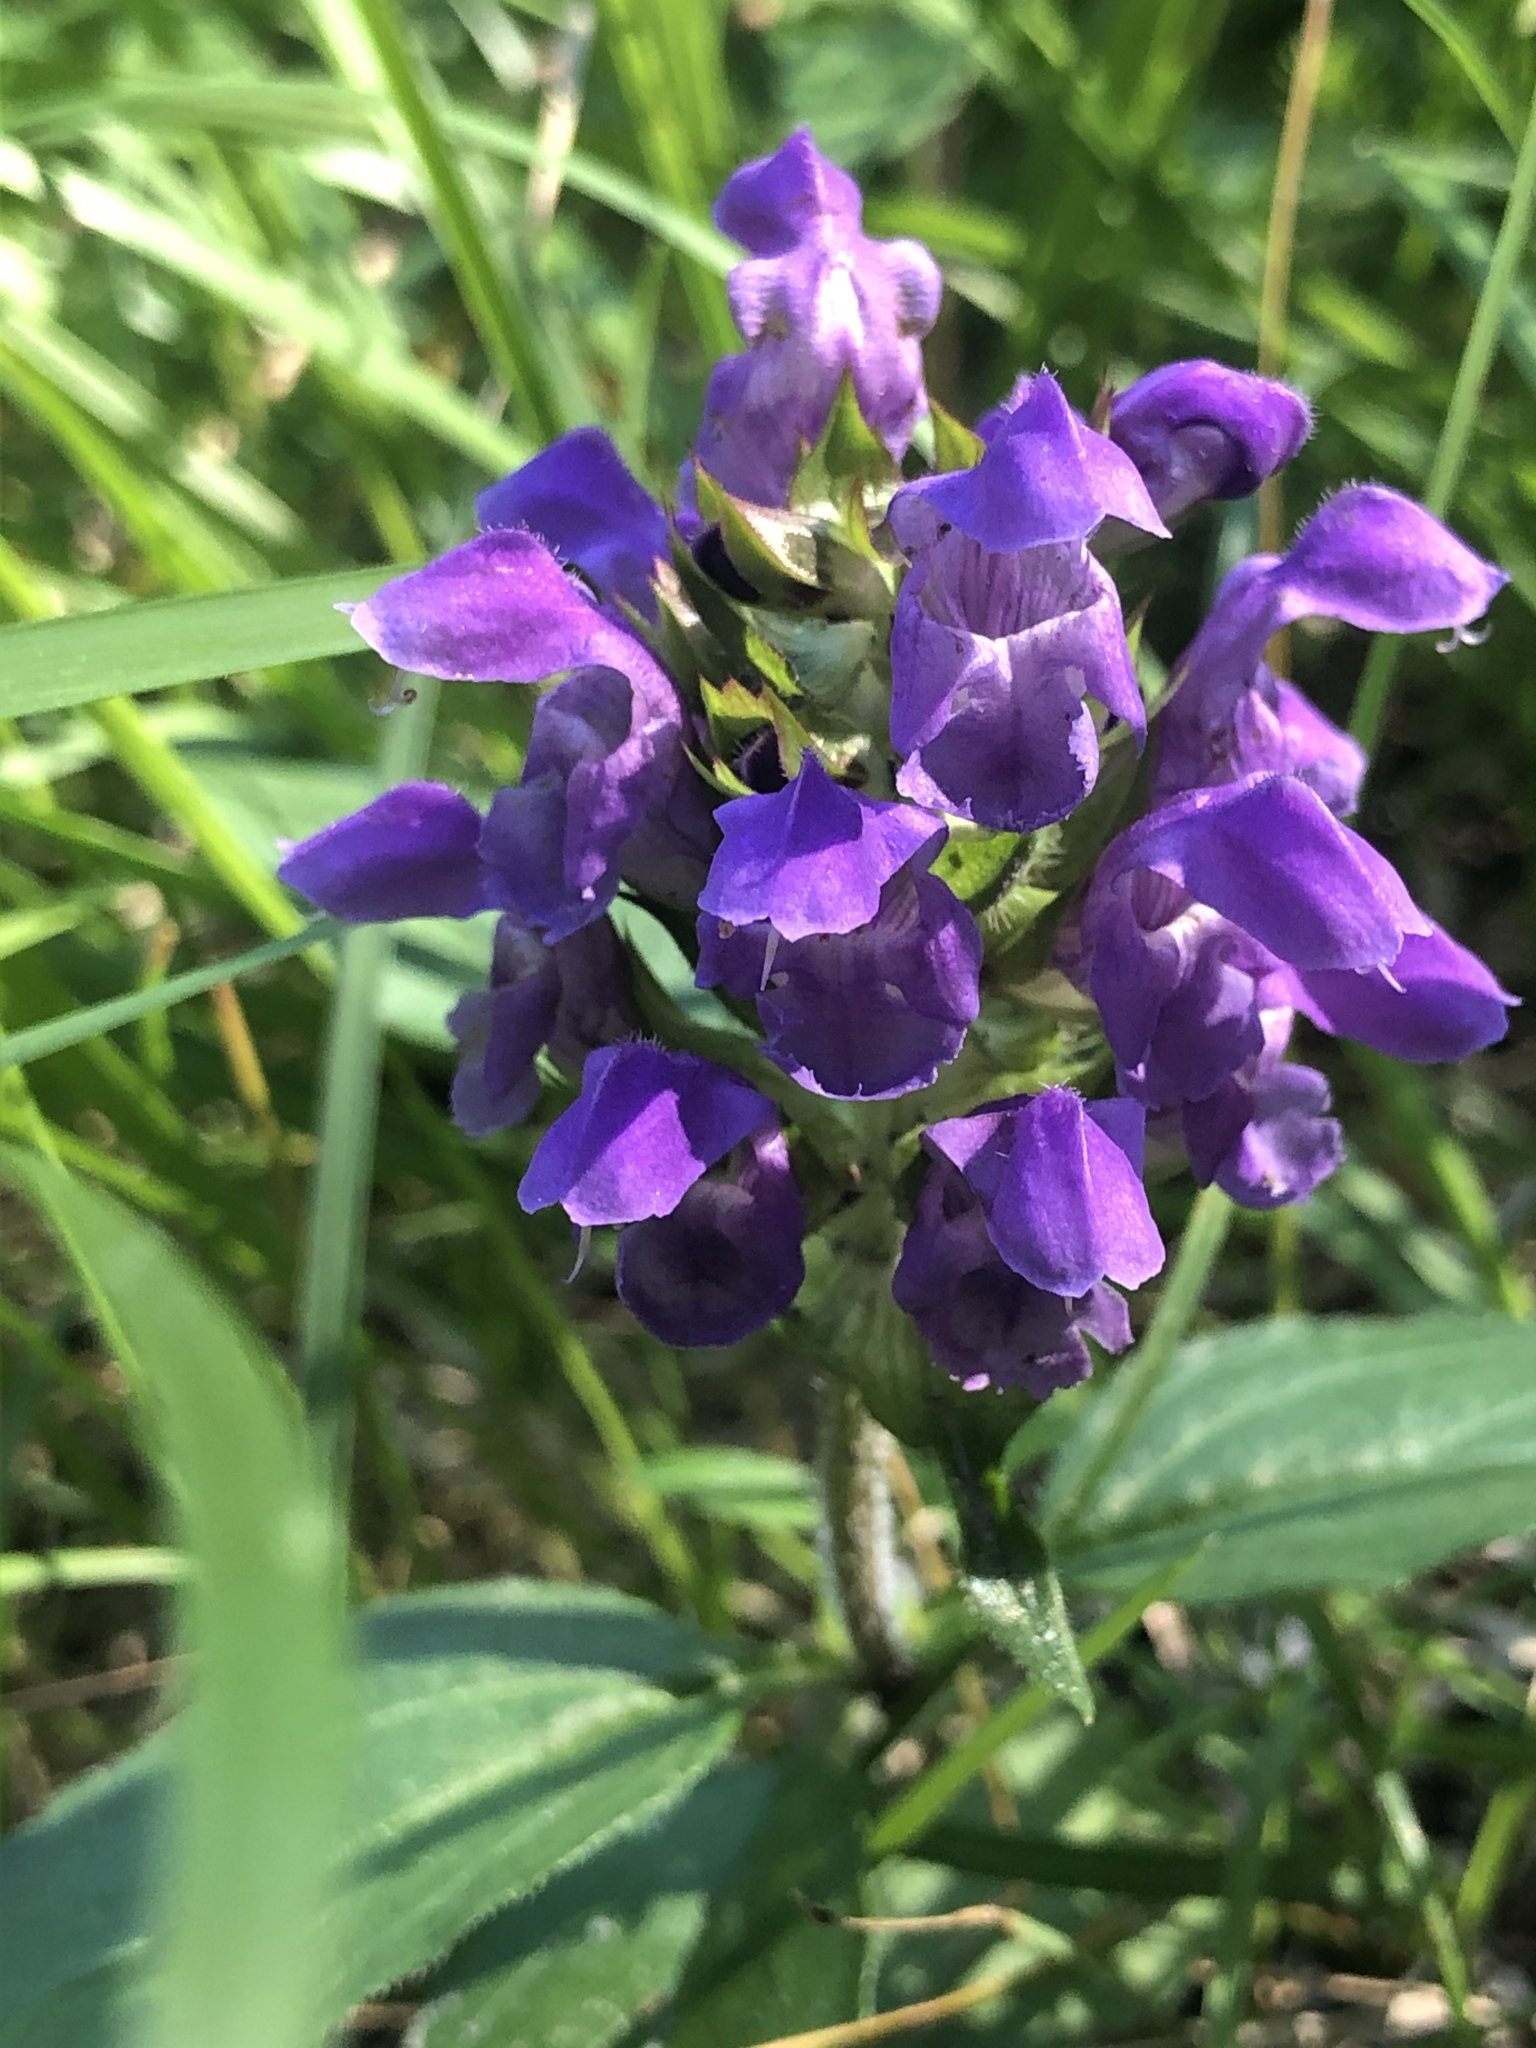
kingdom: Plantae
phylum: Tracheophyta
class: Magnoliopsida
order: Lamiales
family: Lamiaceae
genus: Prunella
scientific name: Prunella grandiflora
